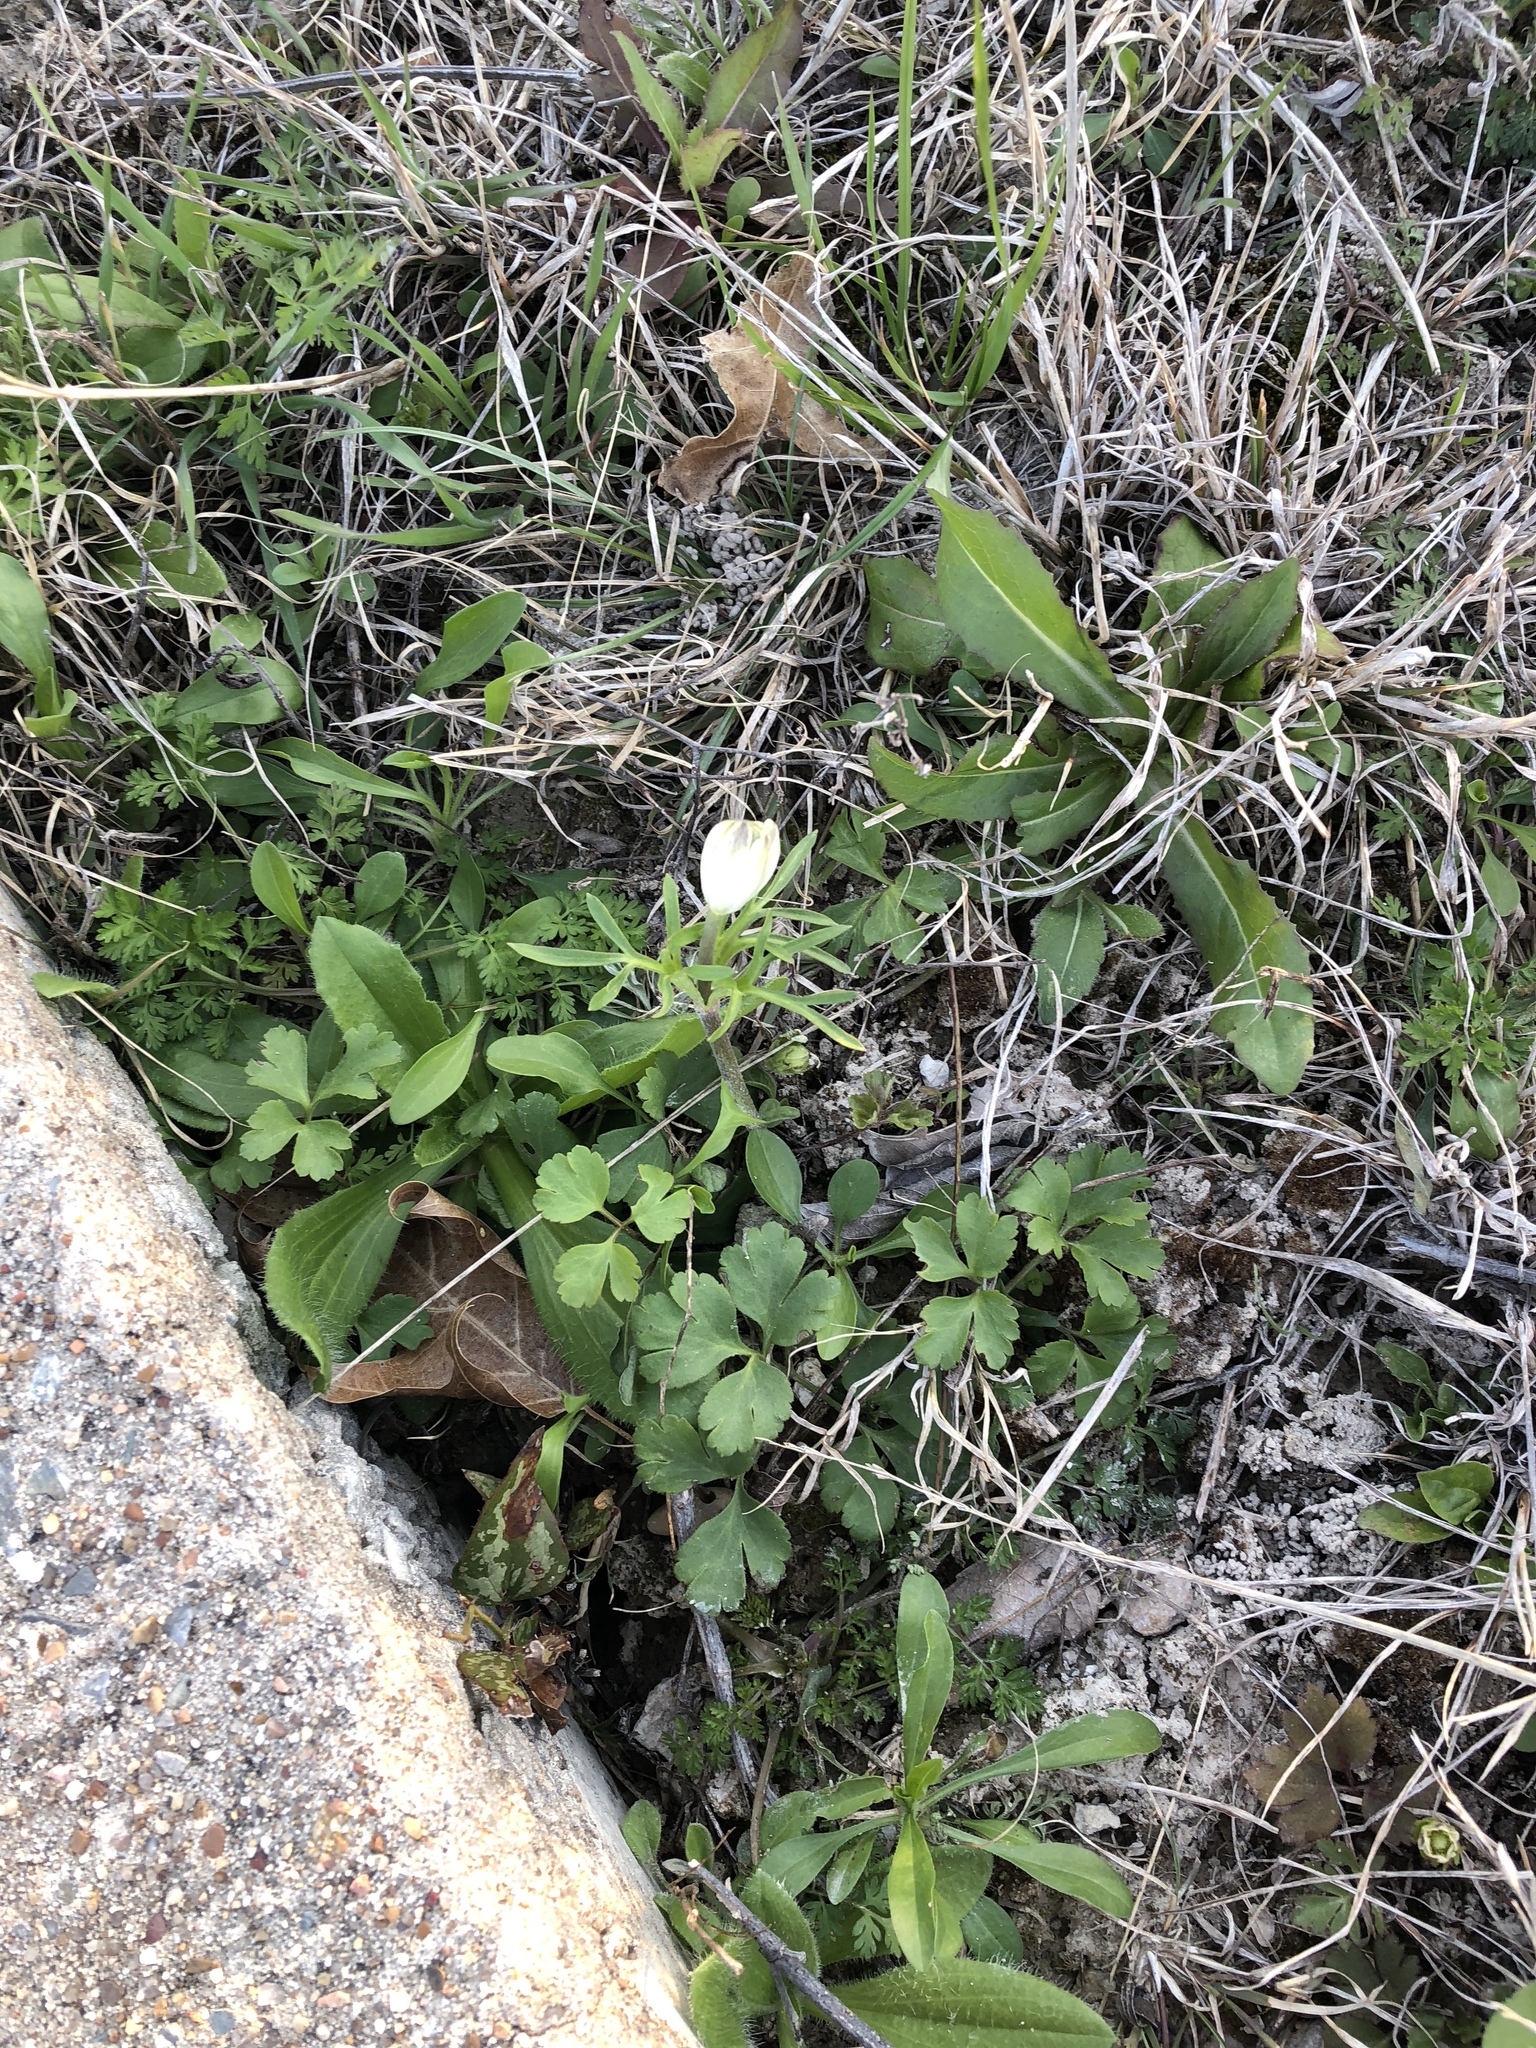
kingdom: Plantae
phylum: Tracheophyta
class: Magnoliopsida
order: Ranunculales
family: Ranunculaceae
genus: Anemone
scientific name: Anemone berlandieri
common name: Ten-petal anemone
